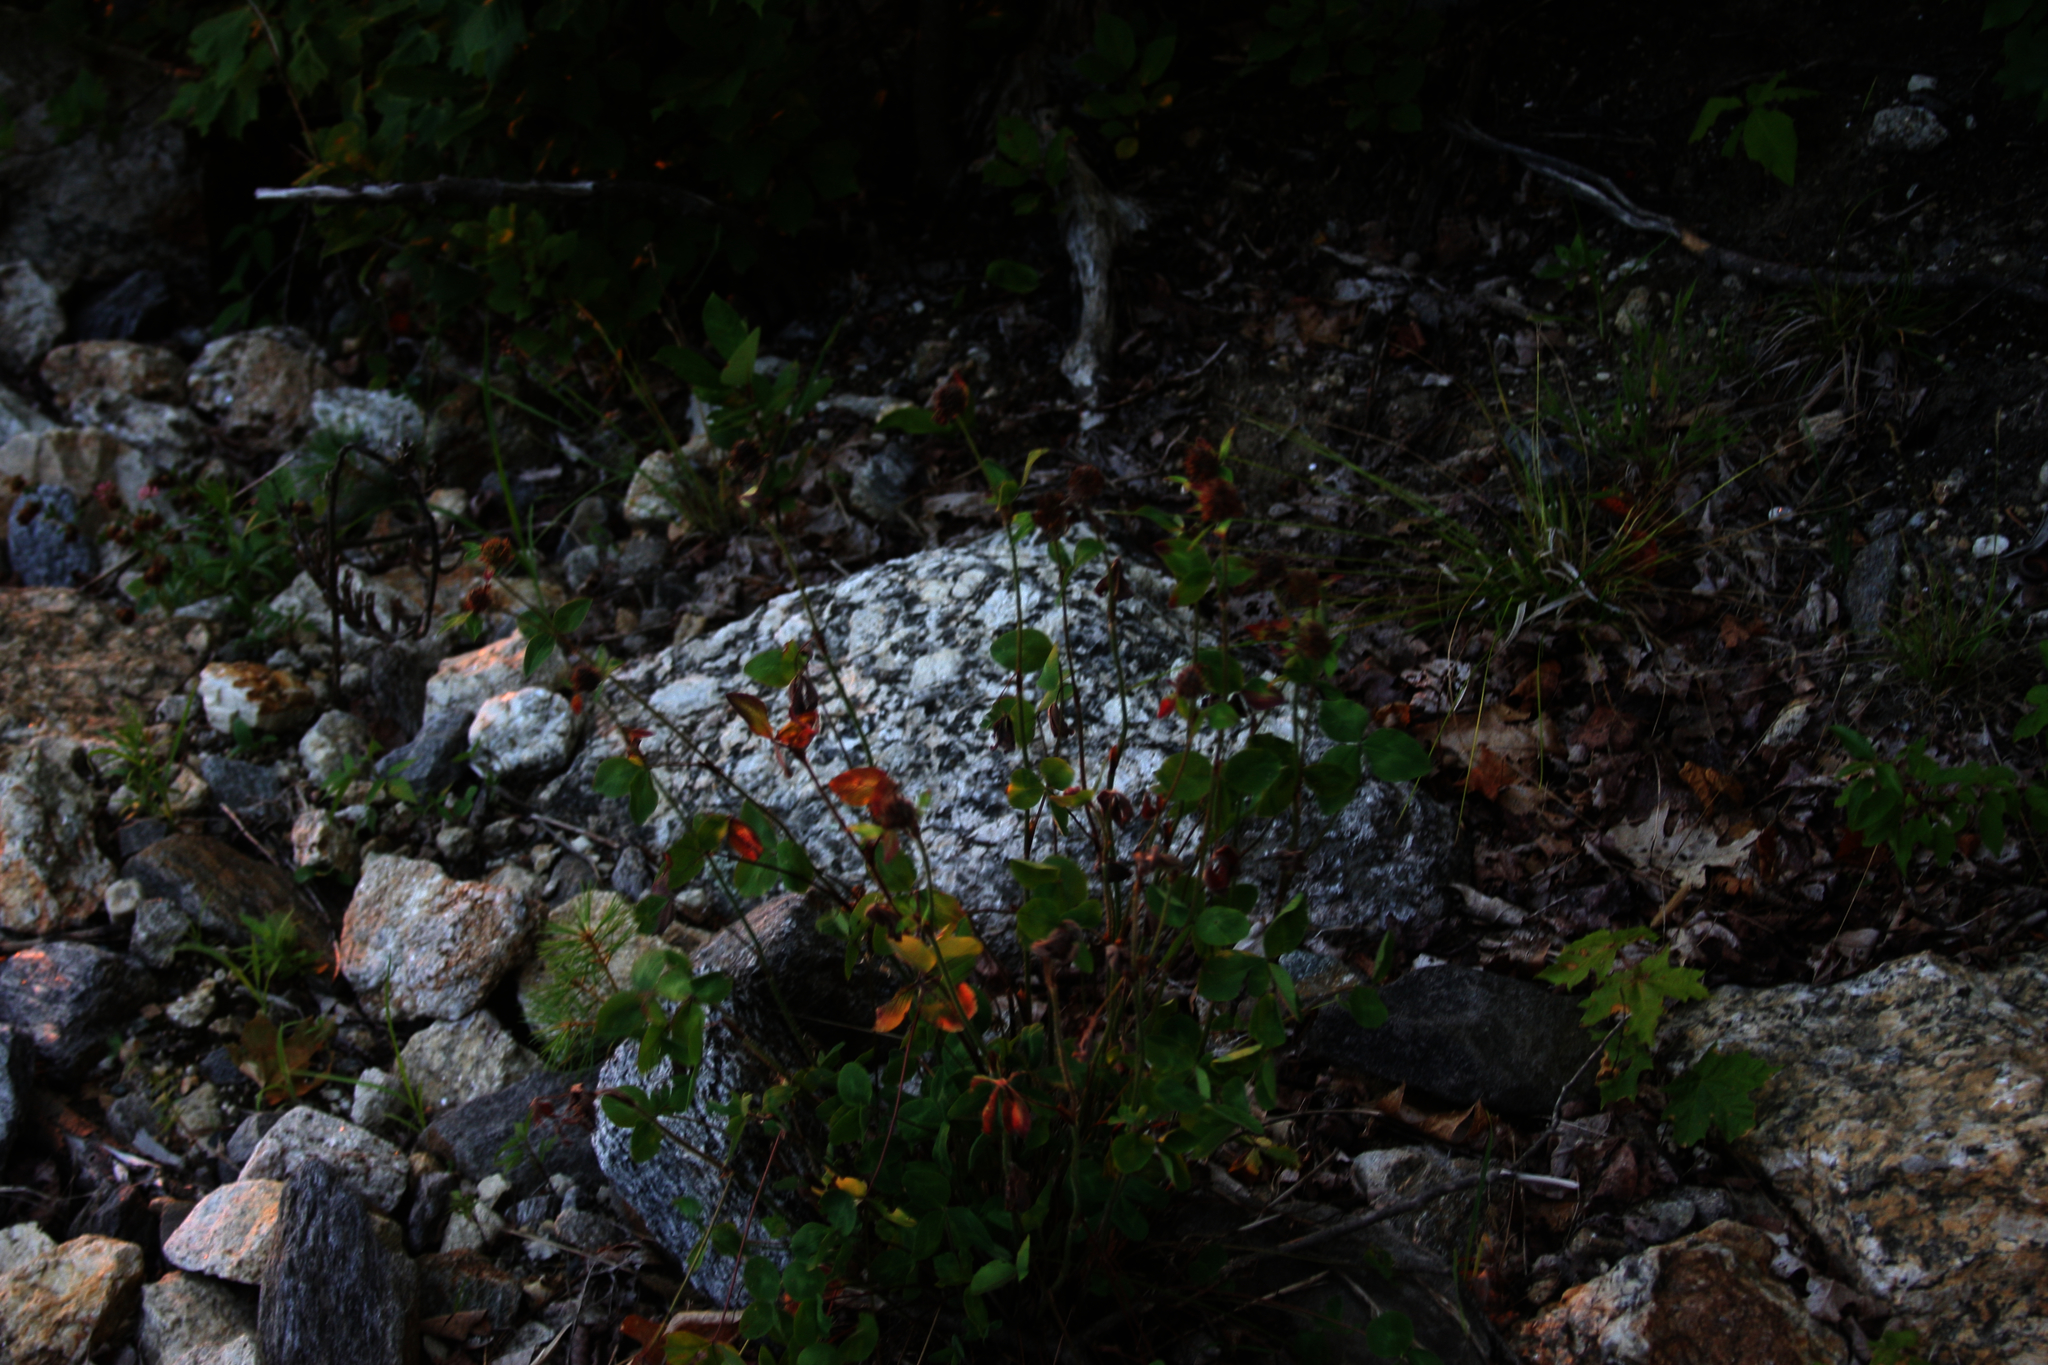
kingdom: Plantae
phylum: Tracheophyta
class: Magnoliopsida
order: Fabales
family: Fabaceae
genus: Trifolium
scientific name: Trifolium pratense
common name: Red clover
